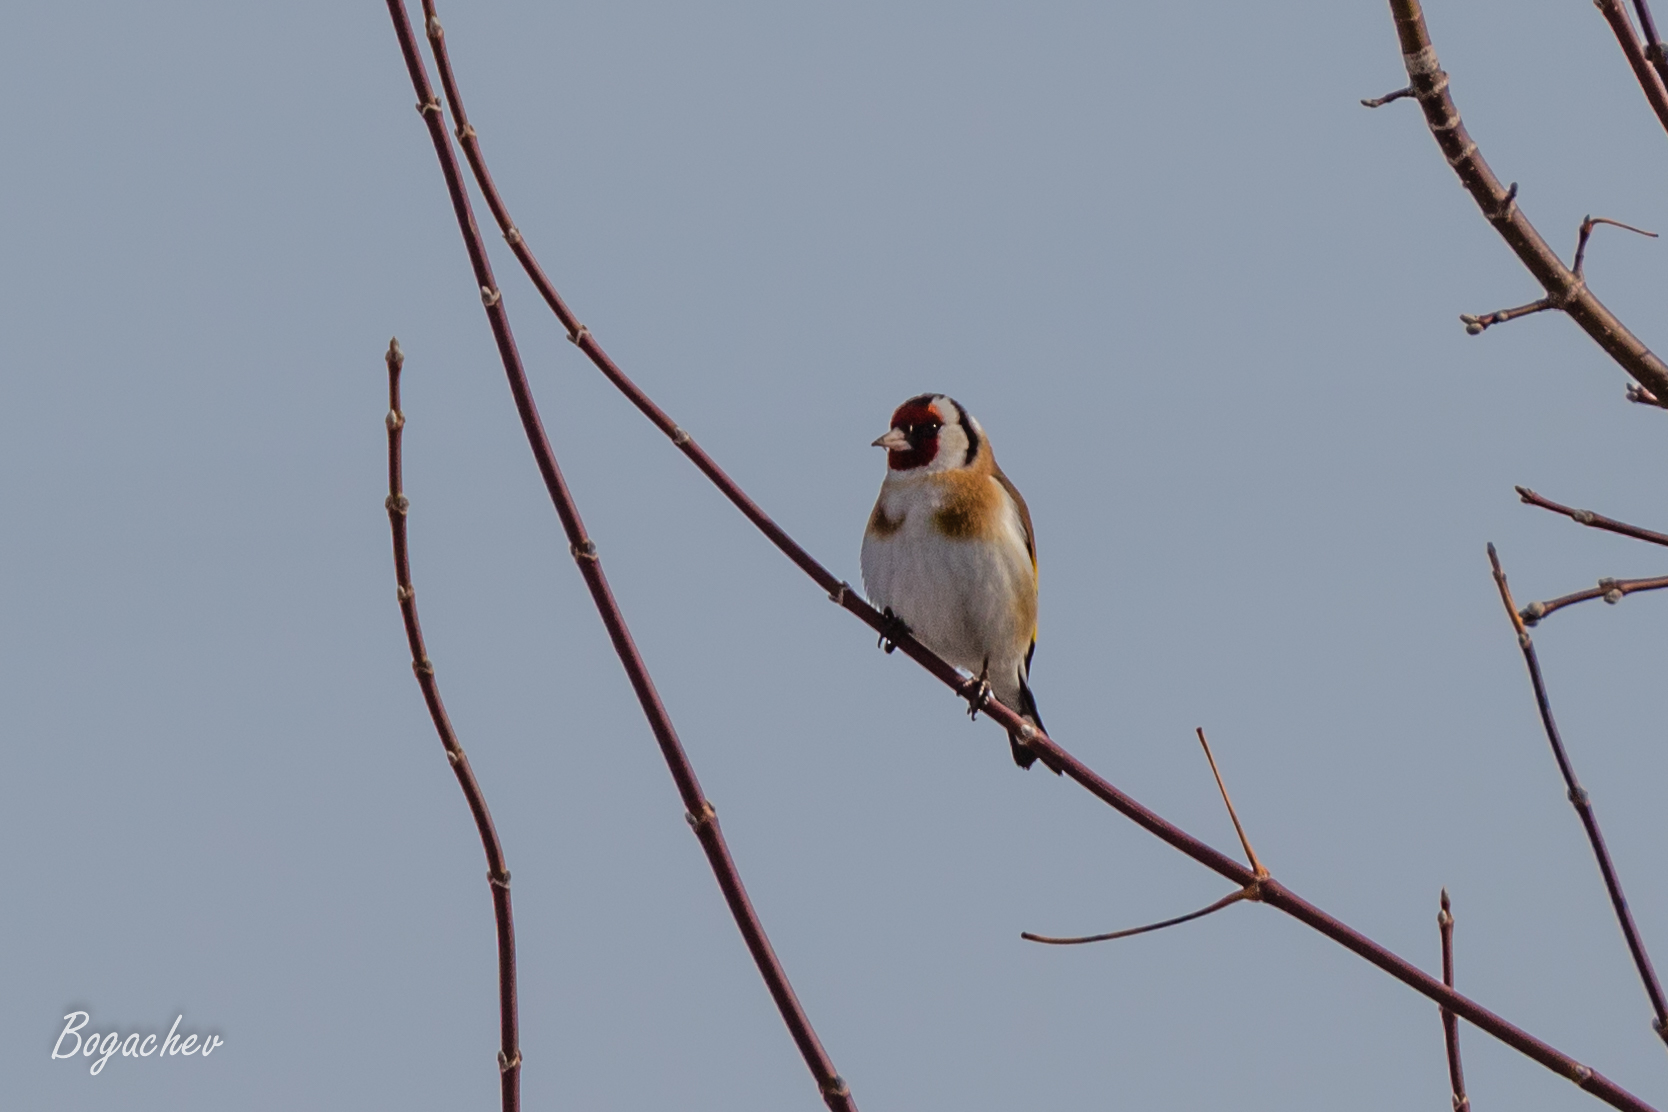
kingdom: Animalia
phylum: Chordata
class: Aves
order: Passeriformes
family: Fringillidae
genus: Carduelis
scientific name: Carduelis carduelis
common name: European goldfinch
